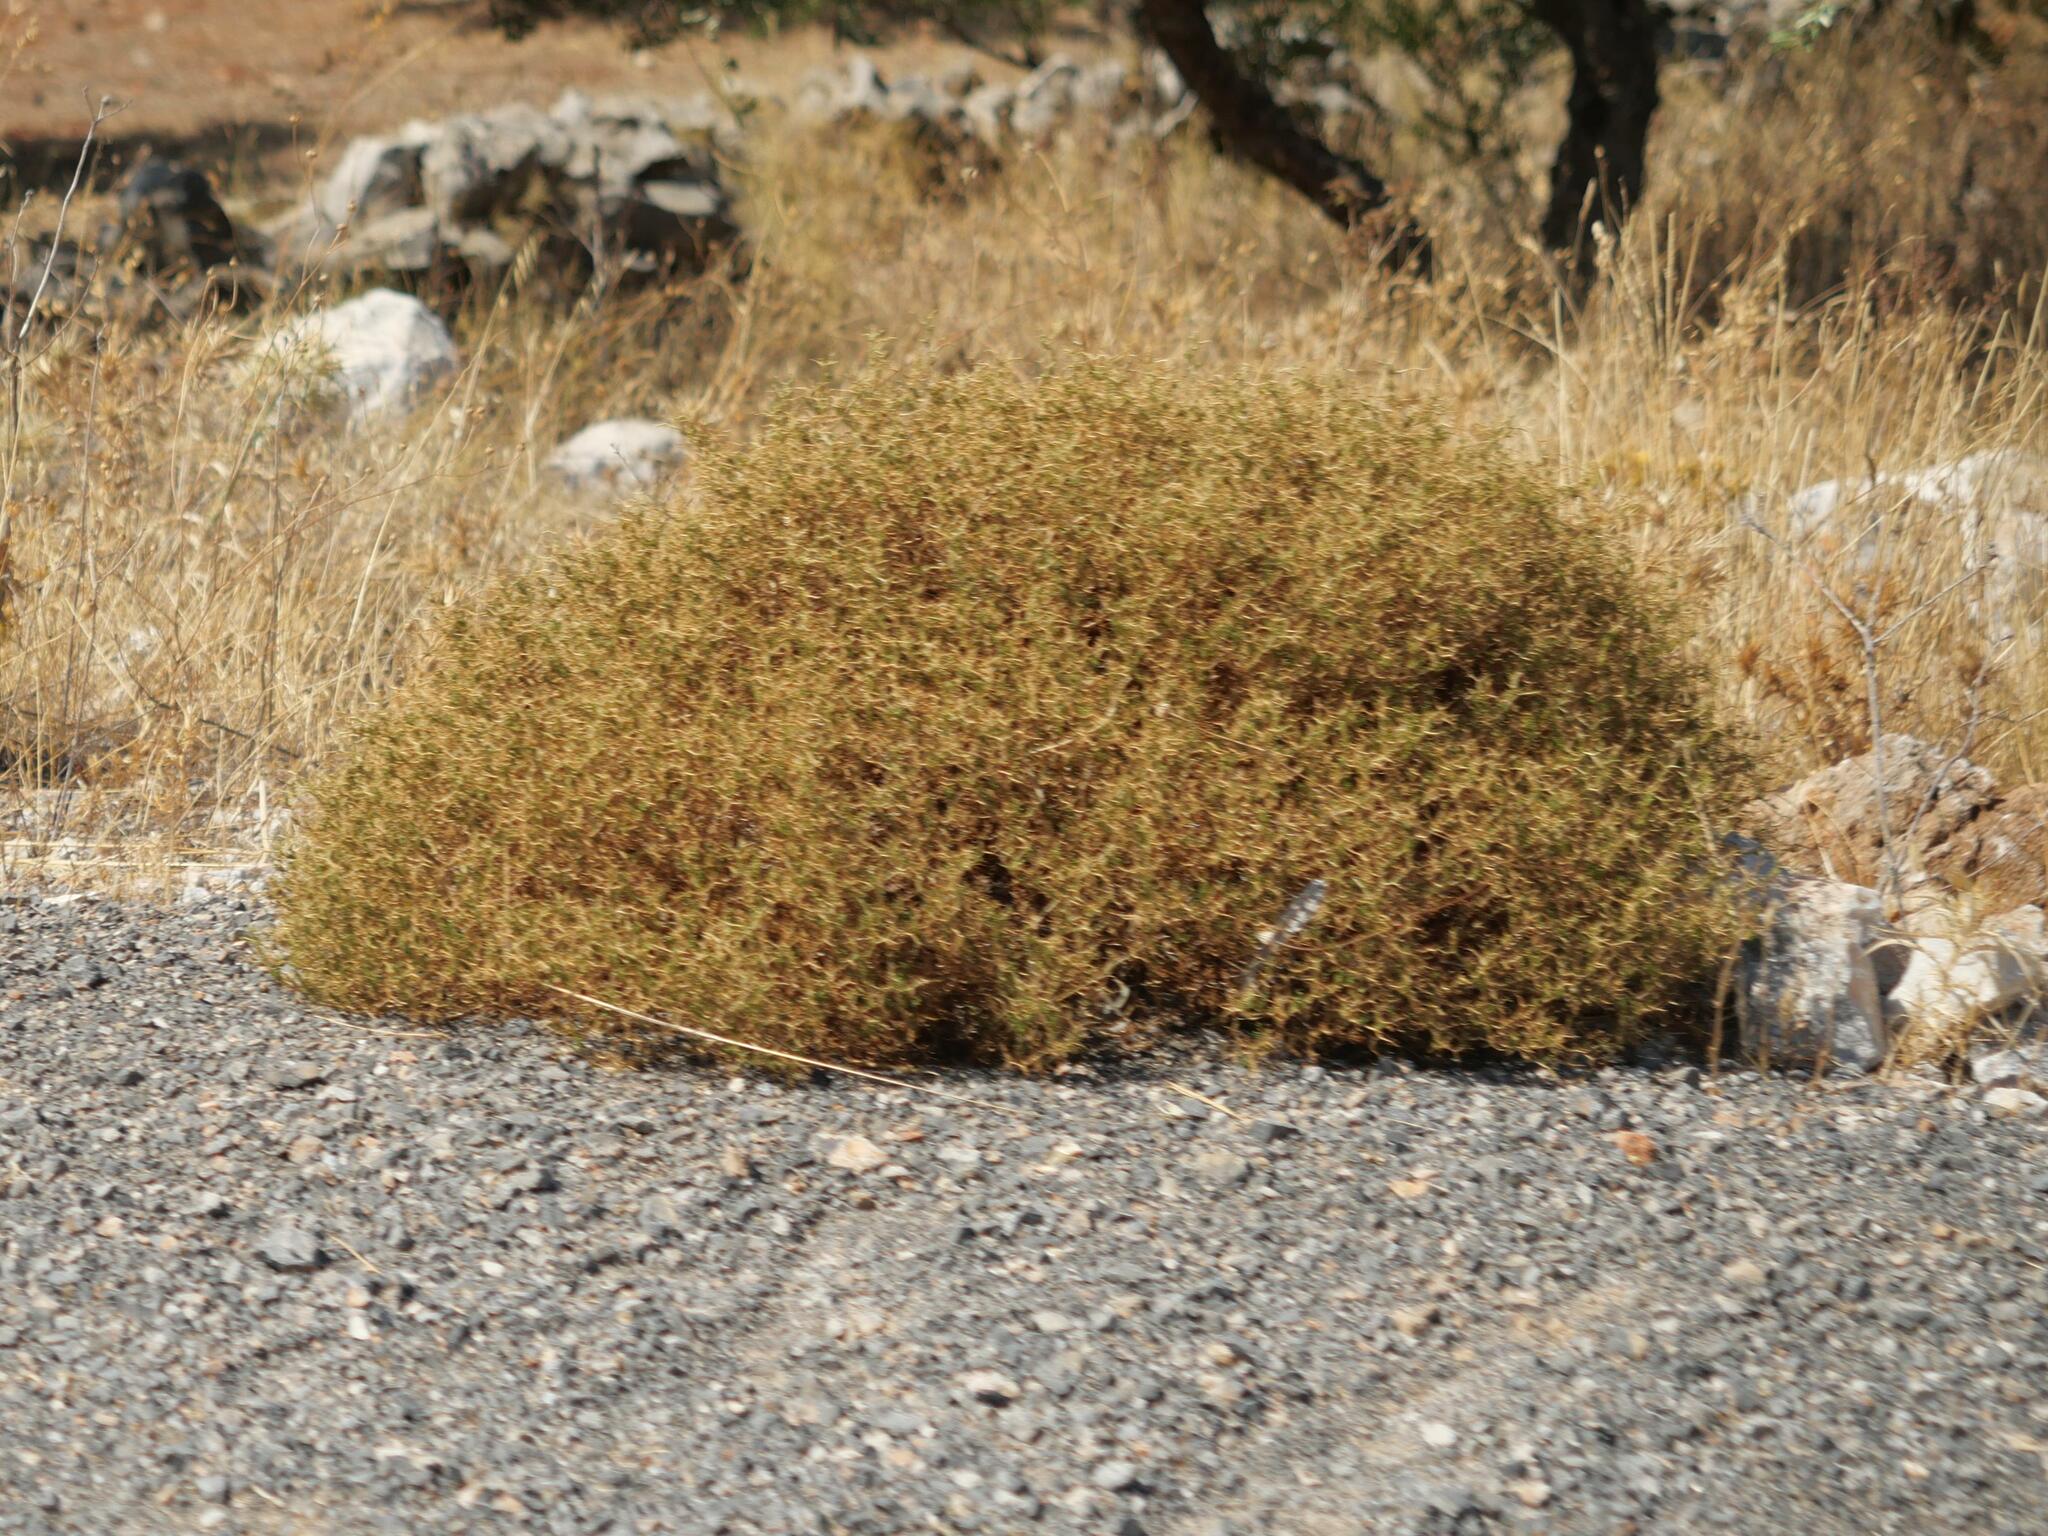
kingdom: Plantae
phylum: Tracheophyta
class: Magnoliopsida
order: Rosales
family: Rosaceae
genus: Sarcopoterium
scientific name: Sarcopoterium spinosum
